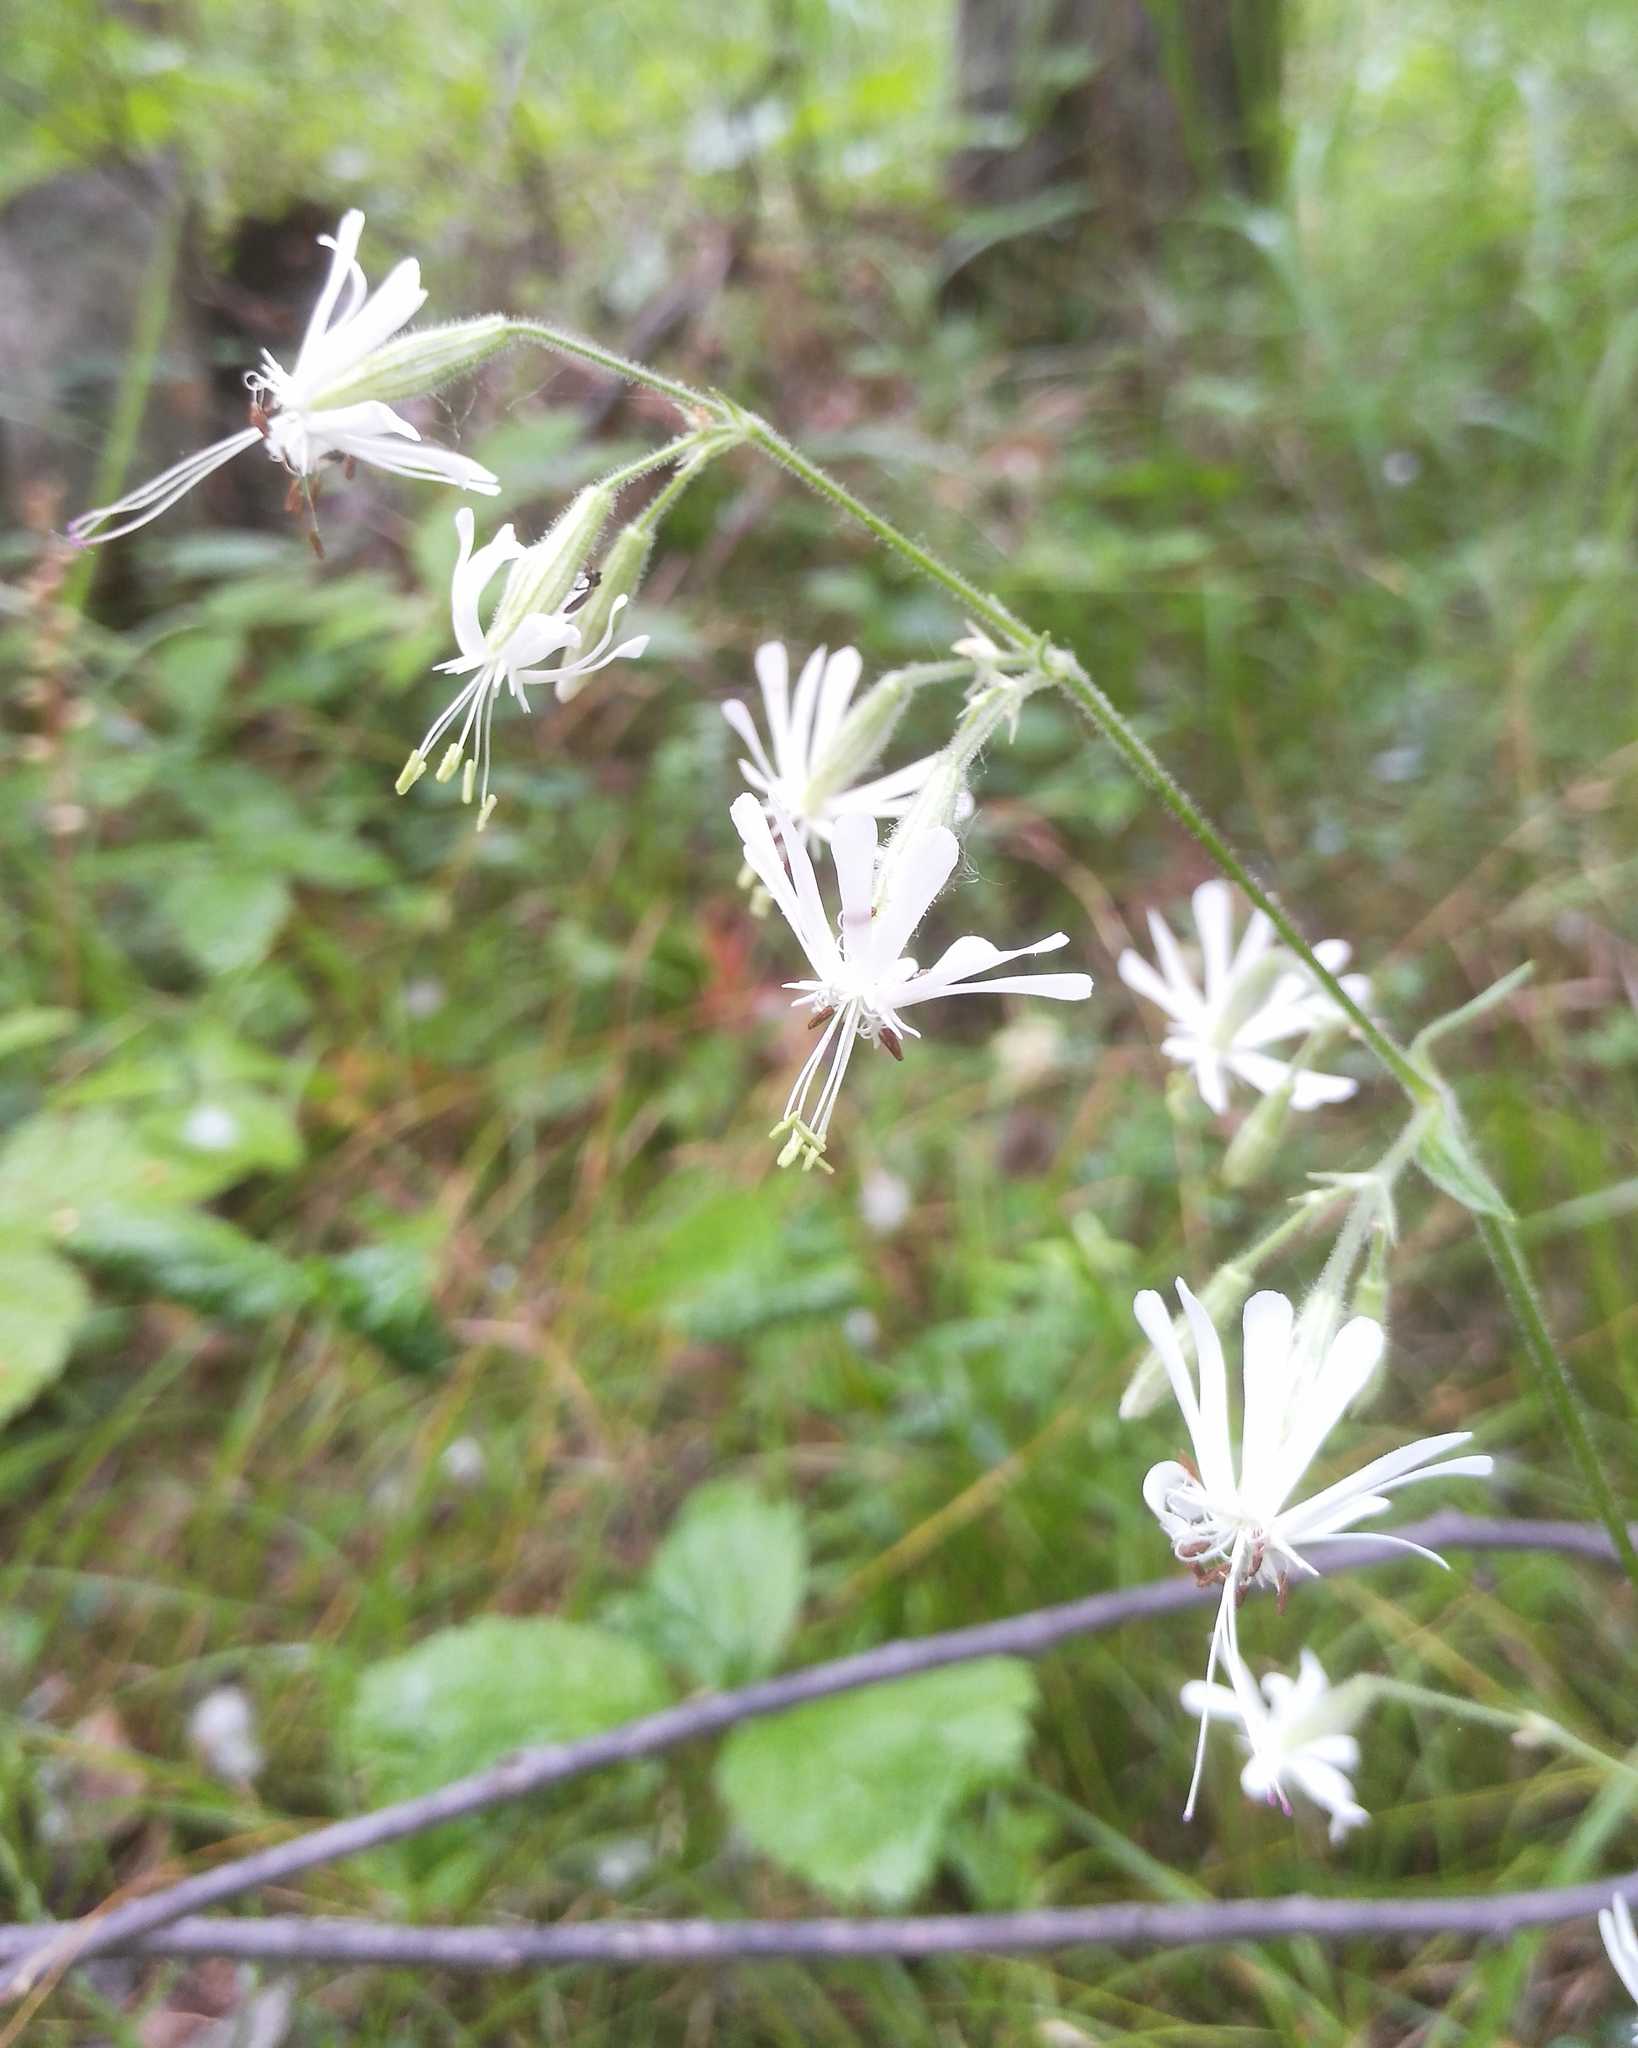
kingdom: Plantae
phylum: Tracheophyta
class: Magnoliopsida
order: Caryophyllales
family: Caryophyllaceae
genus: Silene
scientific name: Silene nutans
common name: Nottingham catchfly
